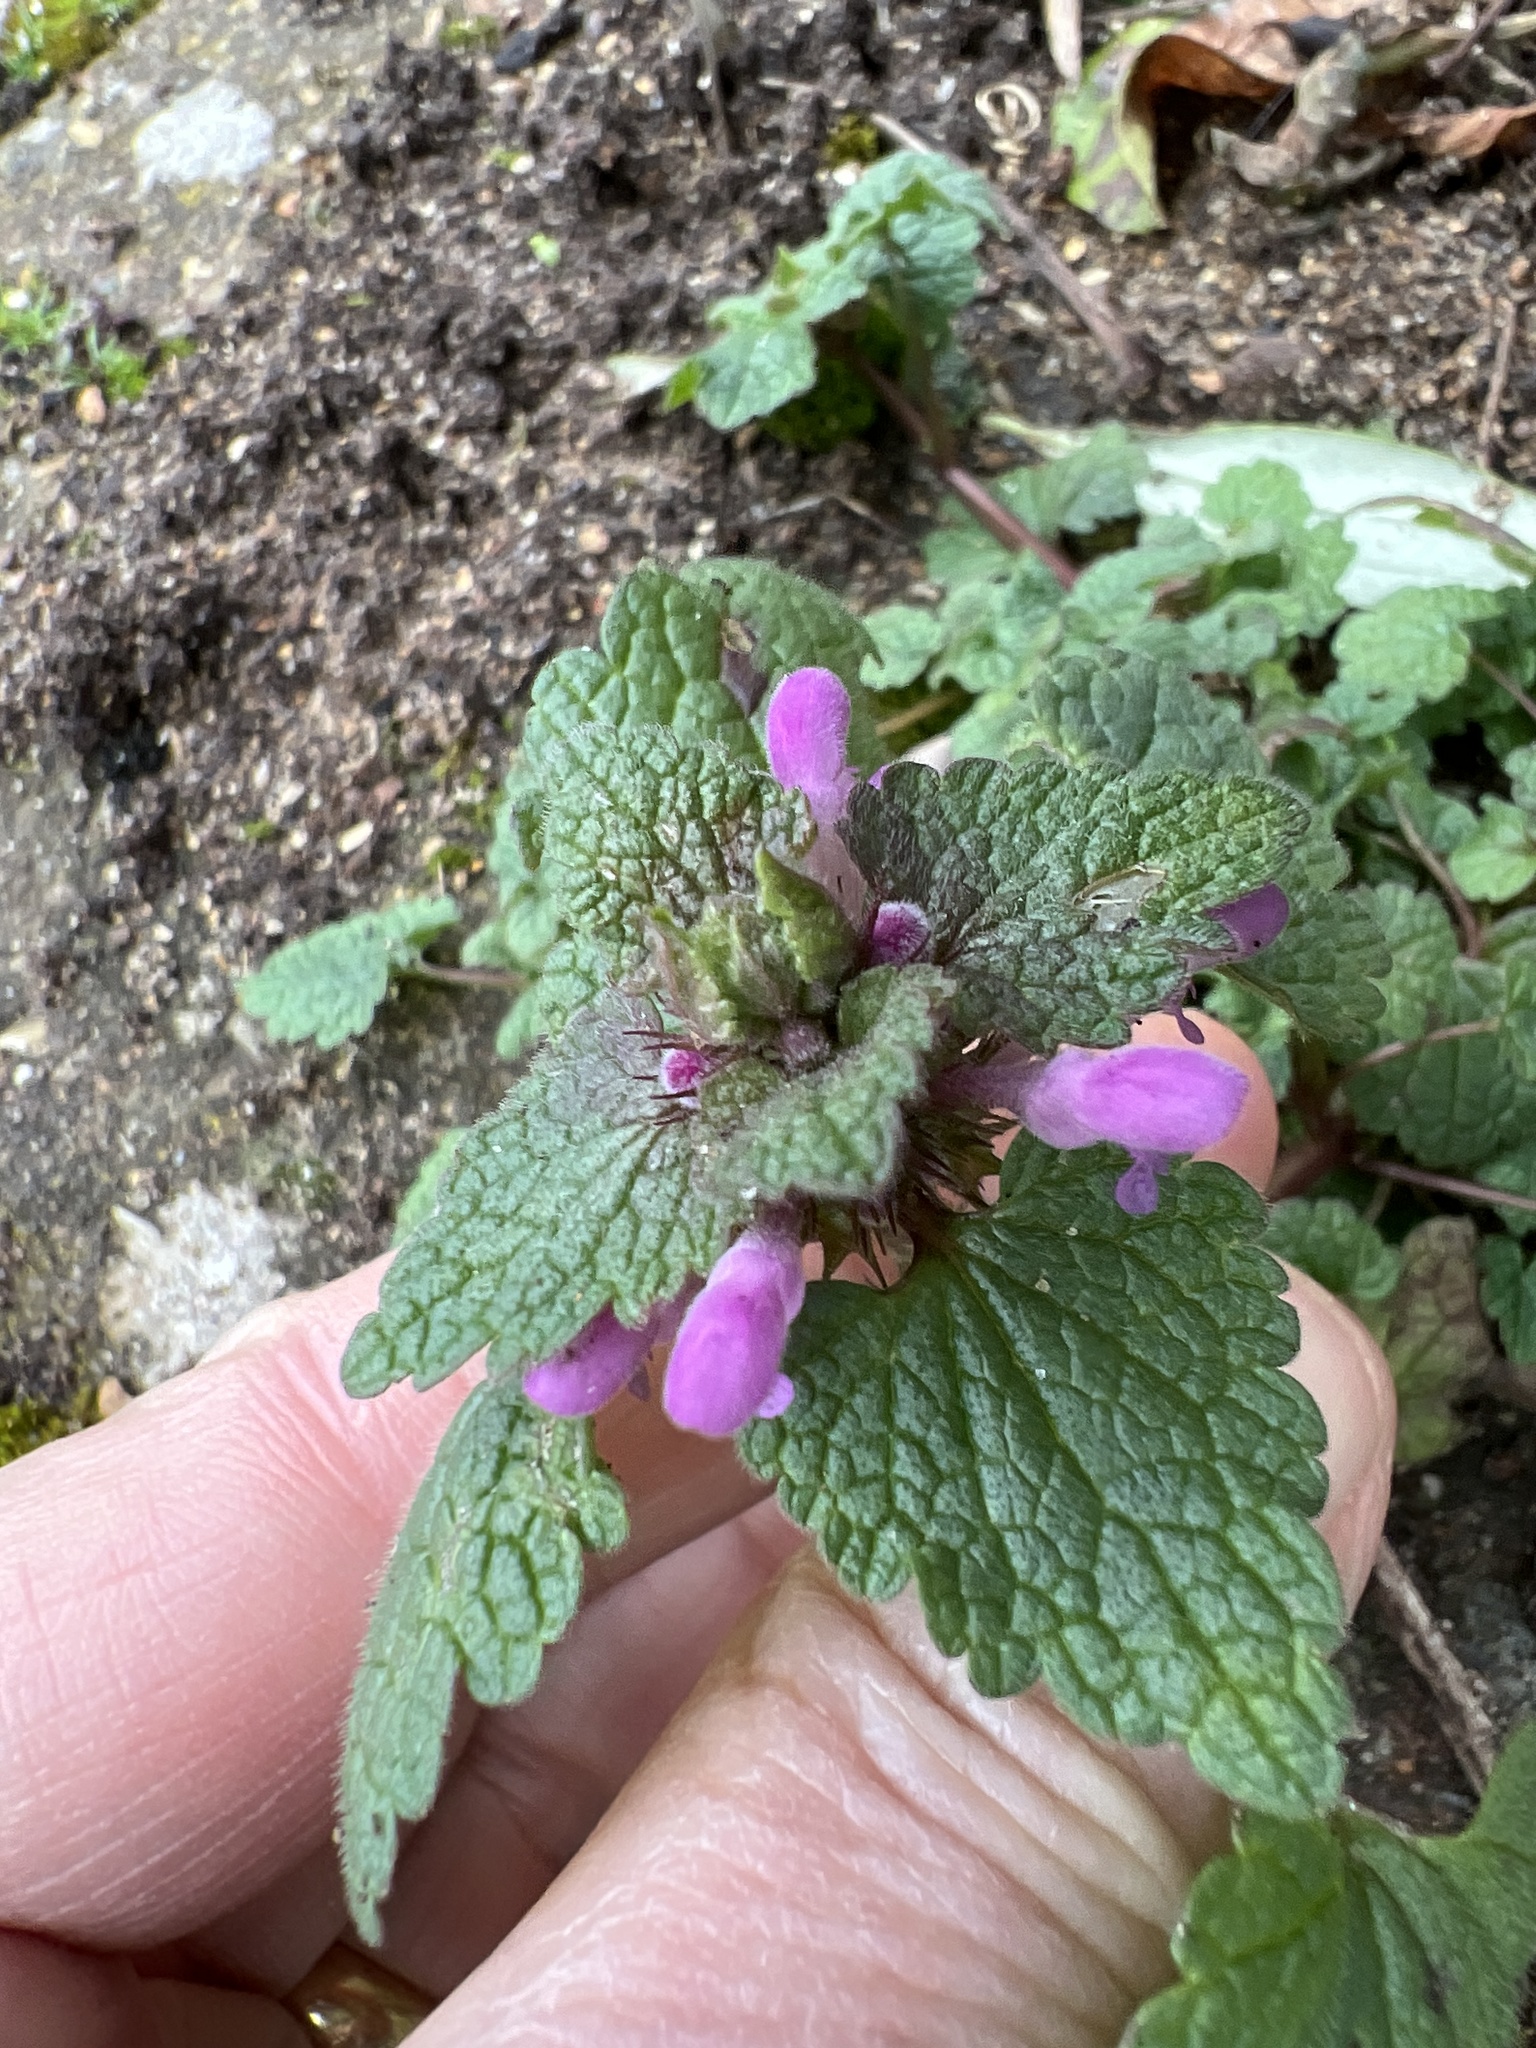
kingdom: Plantae
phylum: Tracheophyta
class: Magnoliopsida
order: Lamiales
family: Lamiaceae
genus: Lamium
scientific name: Lamium purpureum
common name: Red dead-nettle
